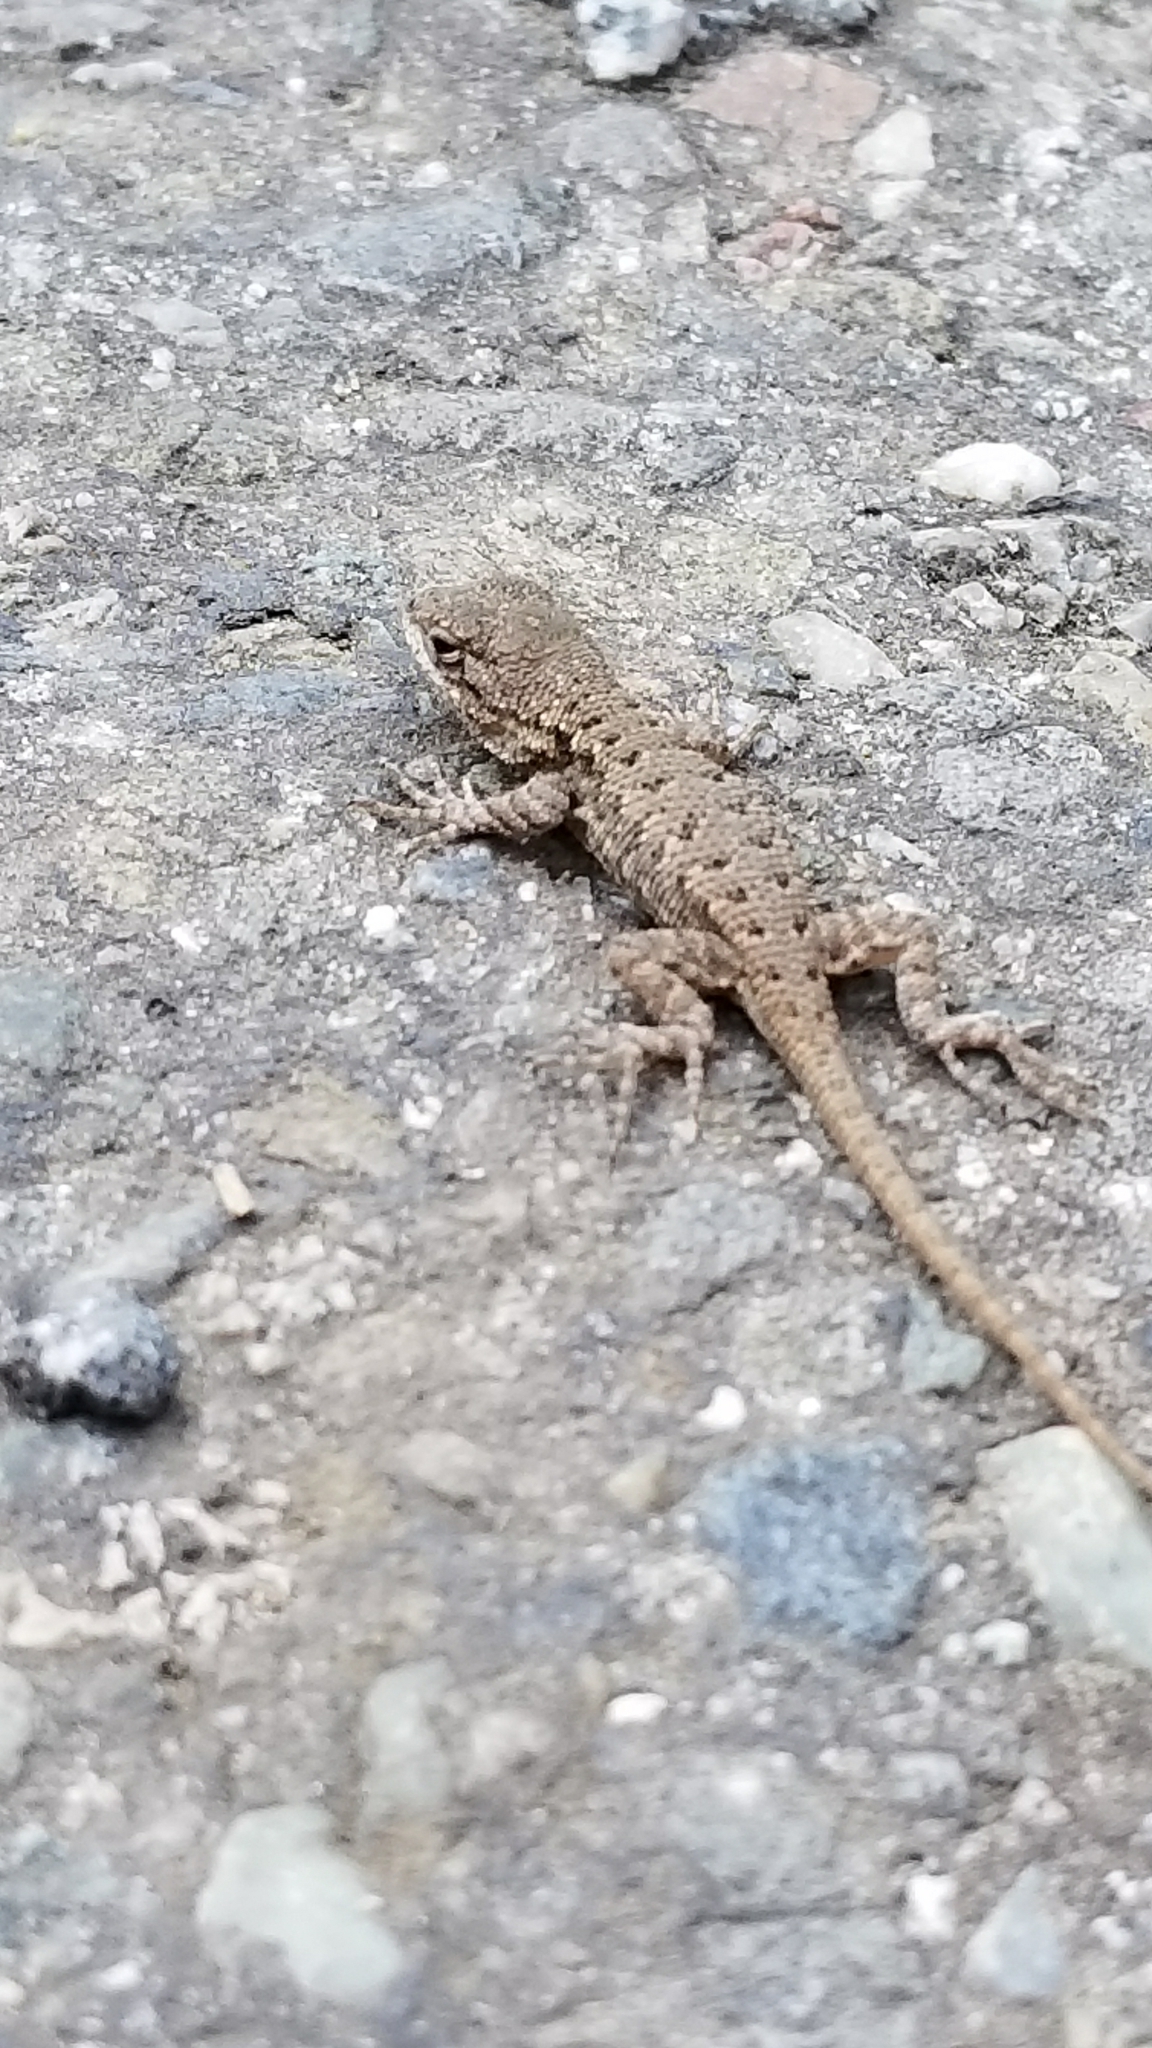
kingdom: Animalia
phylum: Chordata
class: Squamata
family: Phrynosomatidae
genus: Sceloporus
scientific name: Sceloporus occidentalis
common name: Western fence lizard
